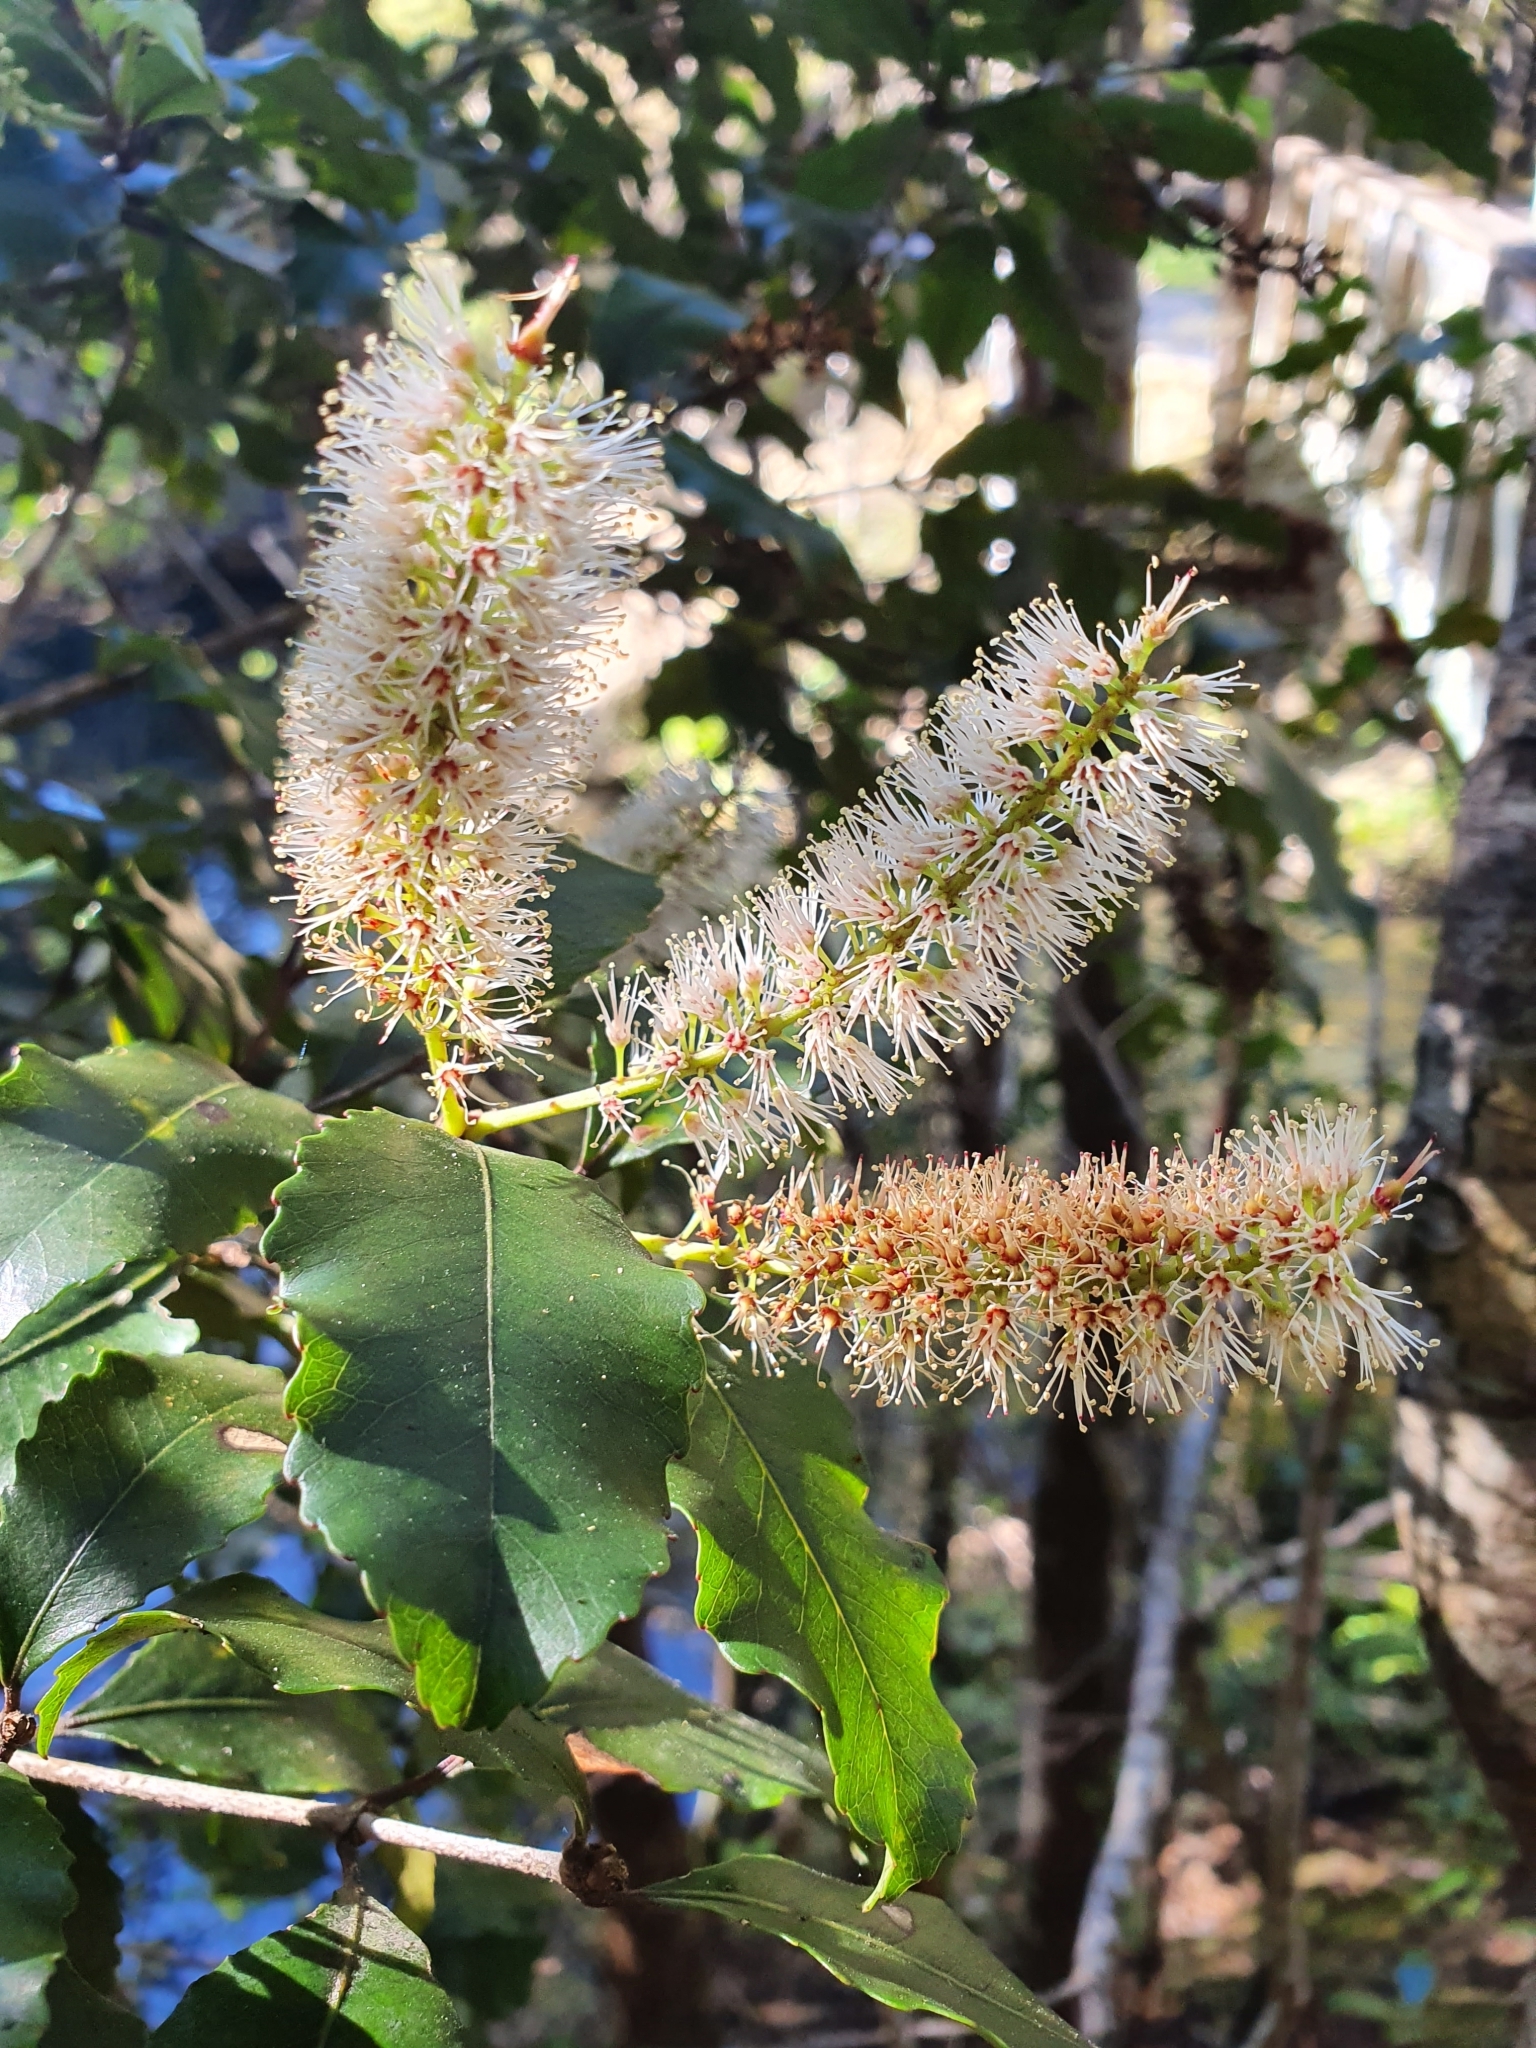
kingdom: Plantae
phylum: Tracheophyta
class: Magnoliopsida
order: Oxalidales
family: Cunoniaceae
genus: Pterophylla
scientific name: Pterophylla racemosa
